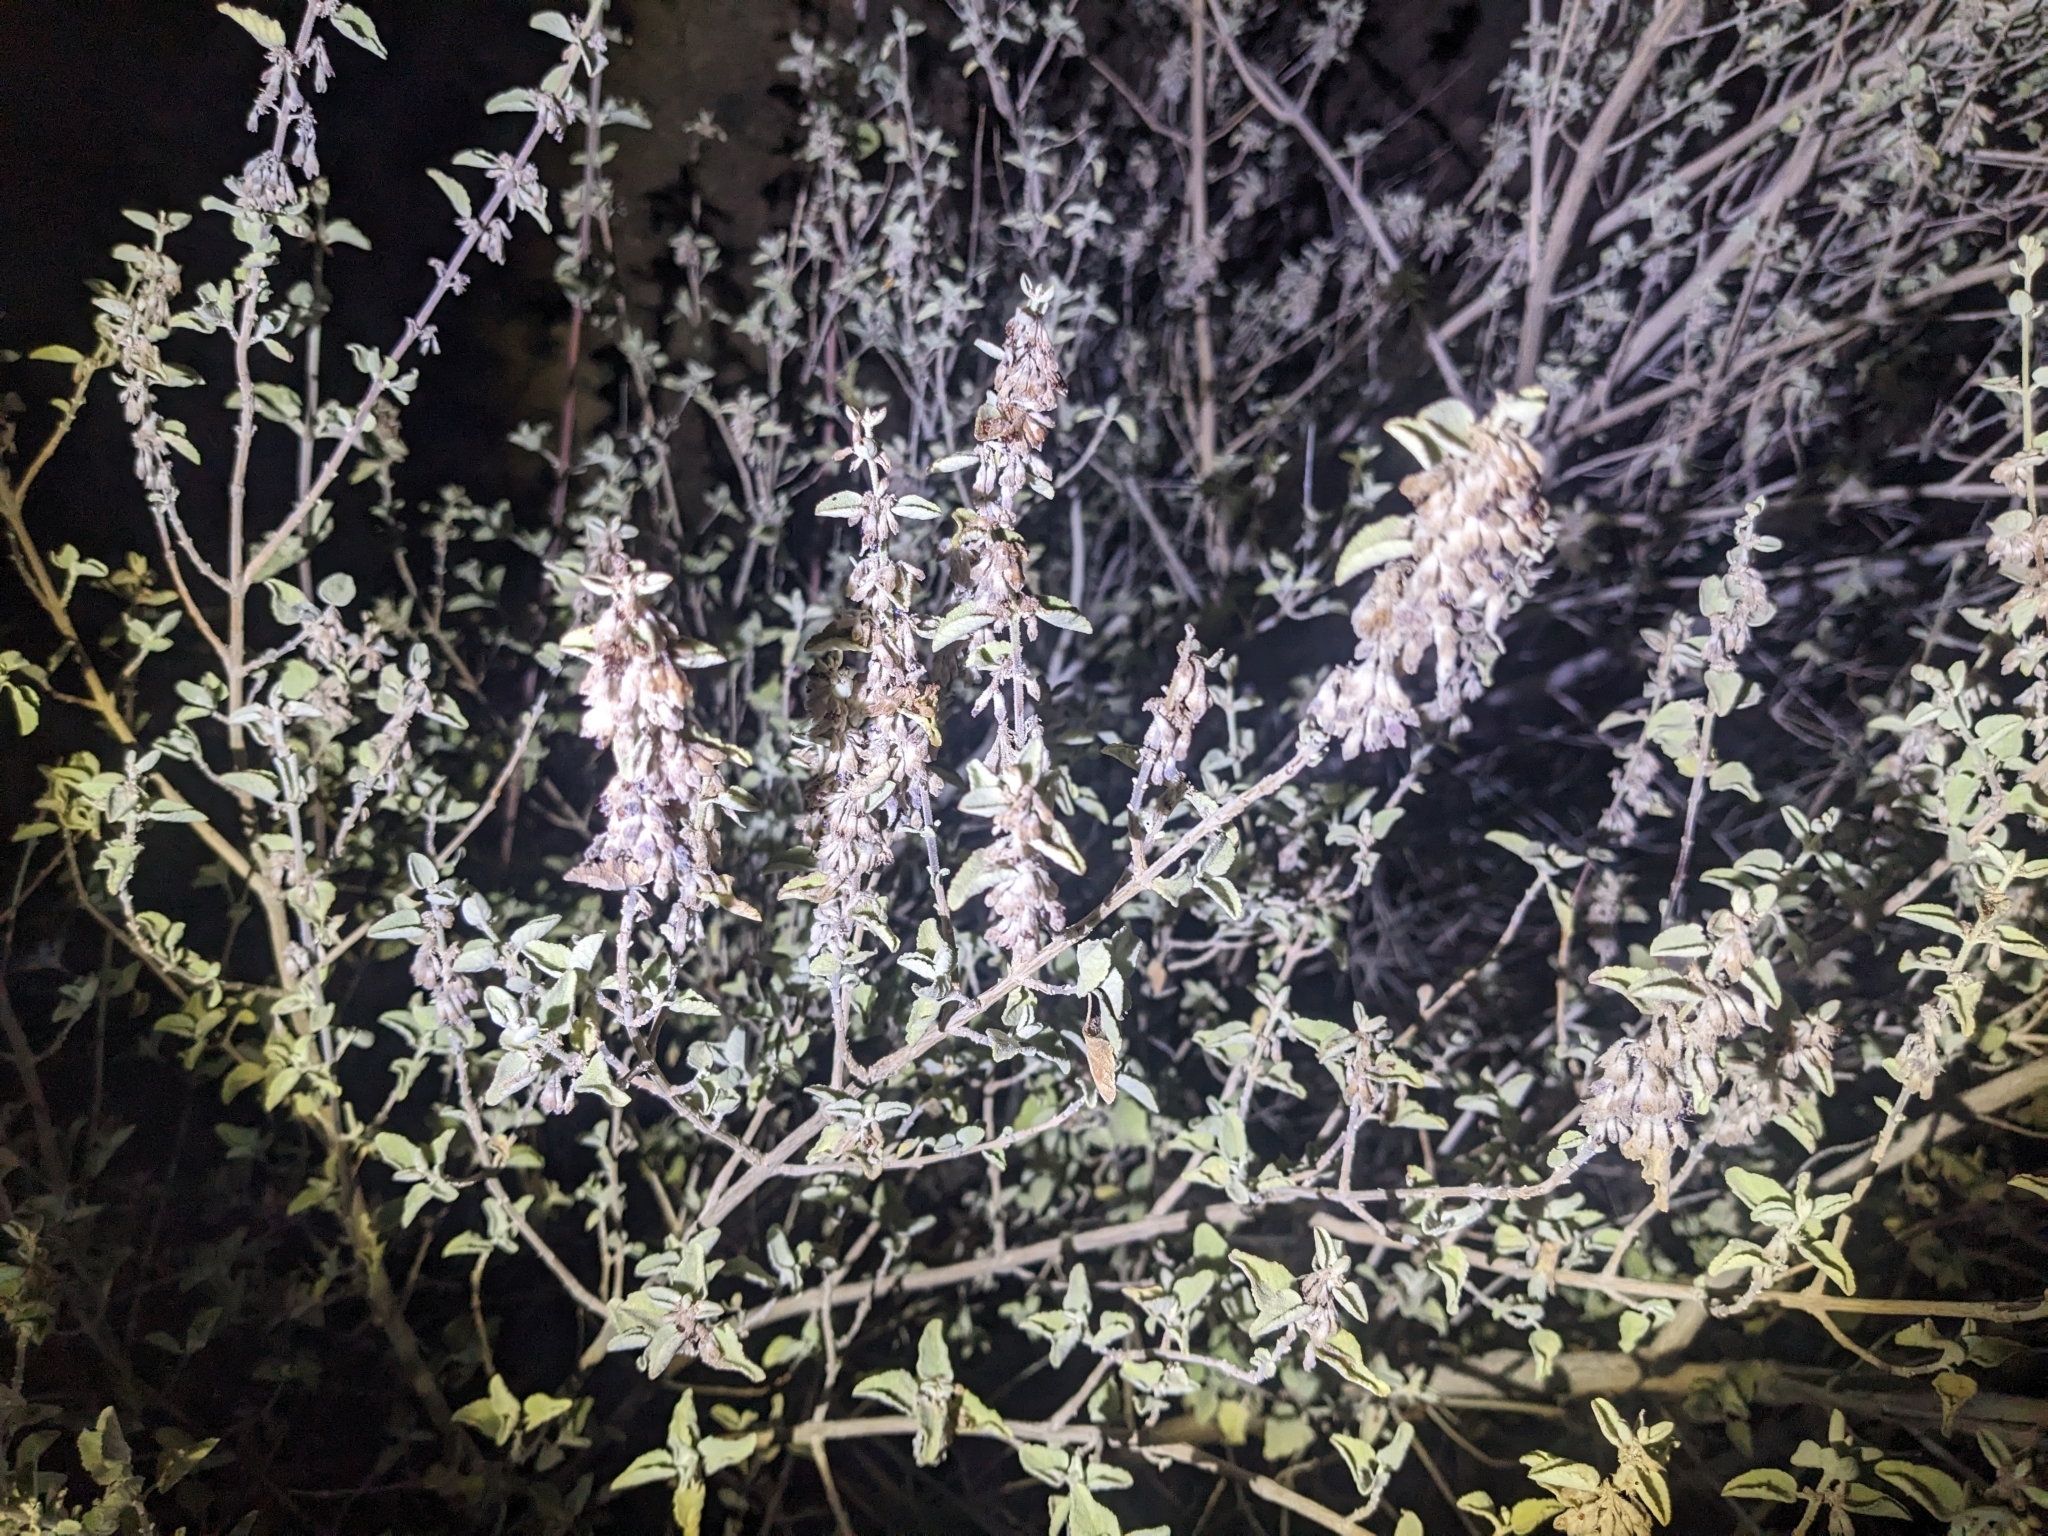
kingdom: Plantae
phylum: Tracheophyta
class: Magnoliopsida
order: Lamiales
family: Lamiaceae
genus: Condea
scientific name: Condea emoryi
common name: Chia
